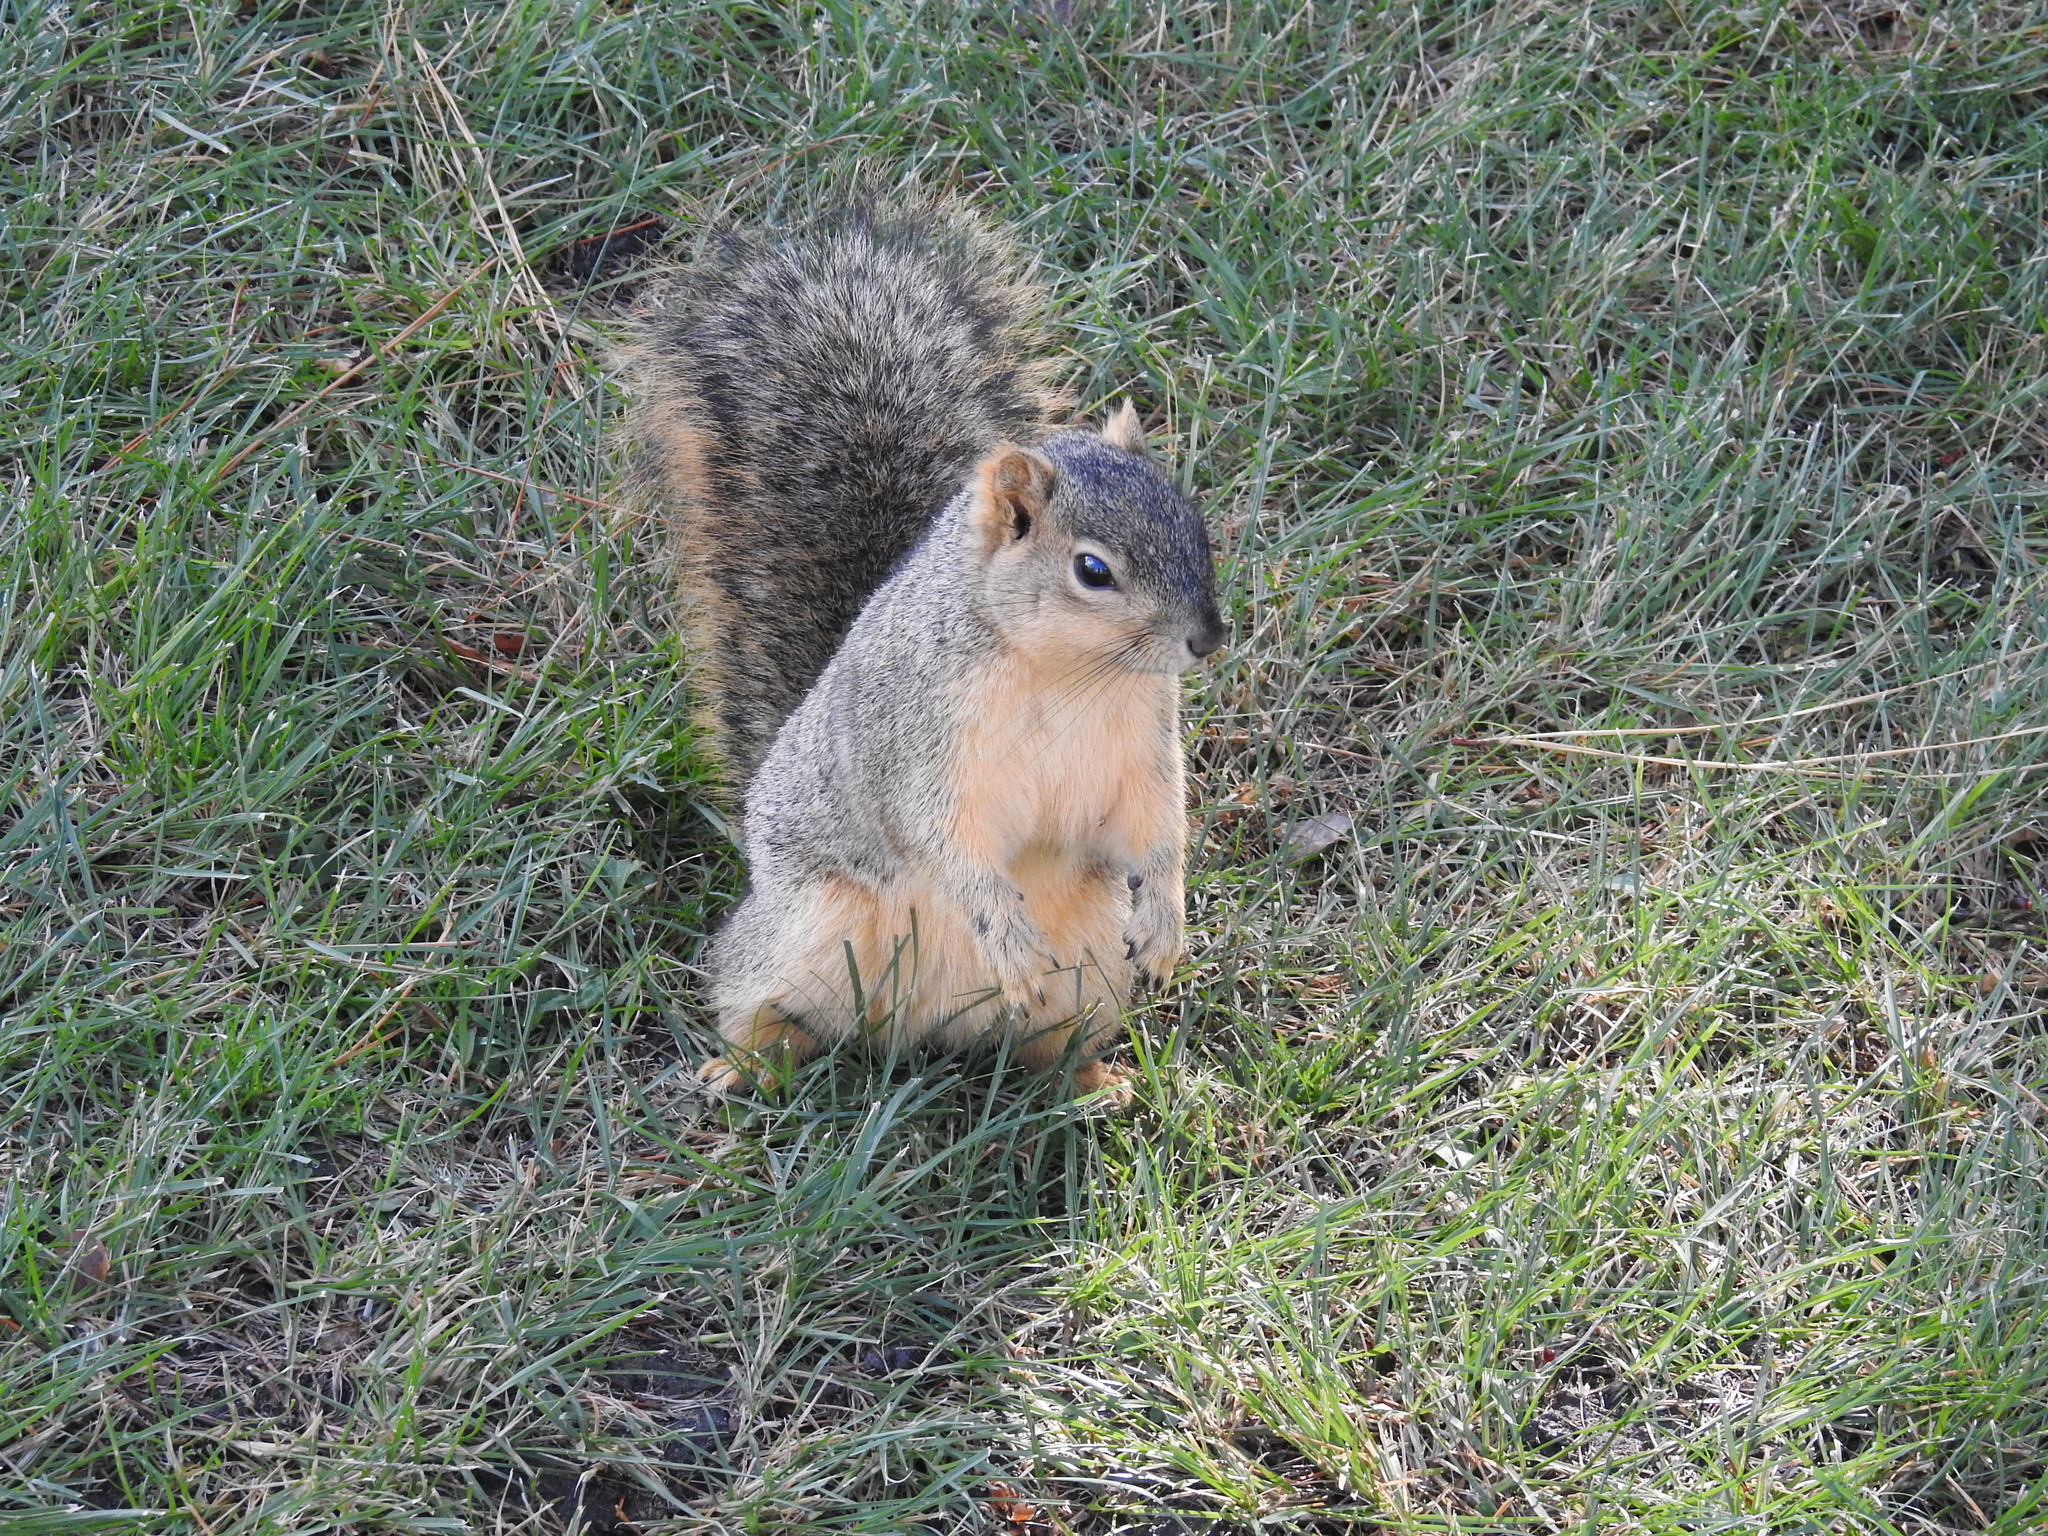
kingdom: Animalia
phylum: Chordata
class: Mammalia
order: Rodentia
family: Sciuridae
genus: Sciurus
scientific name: Sciurus niger
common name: Fox squirrel
